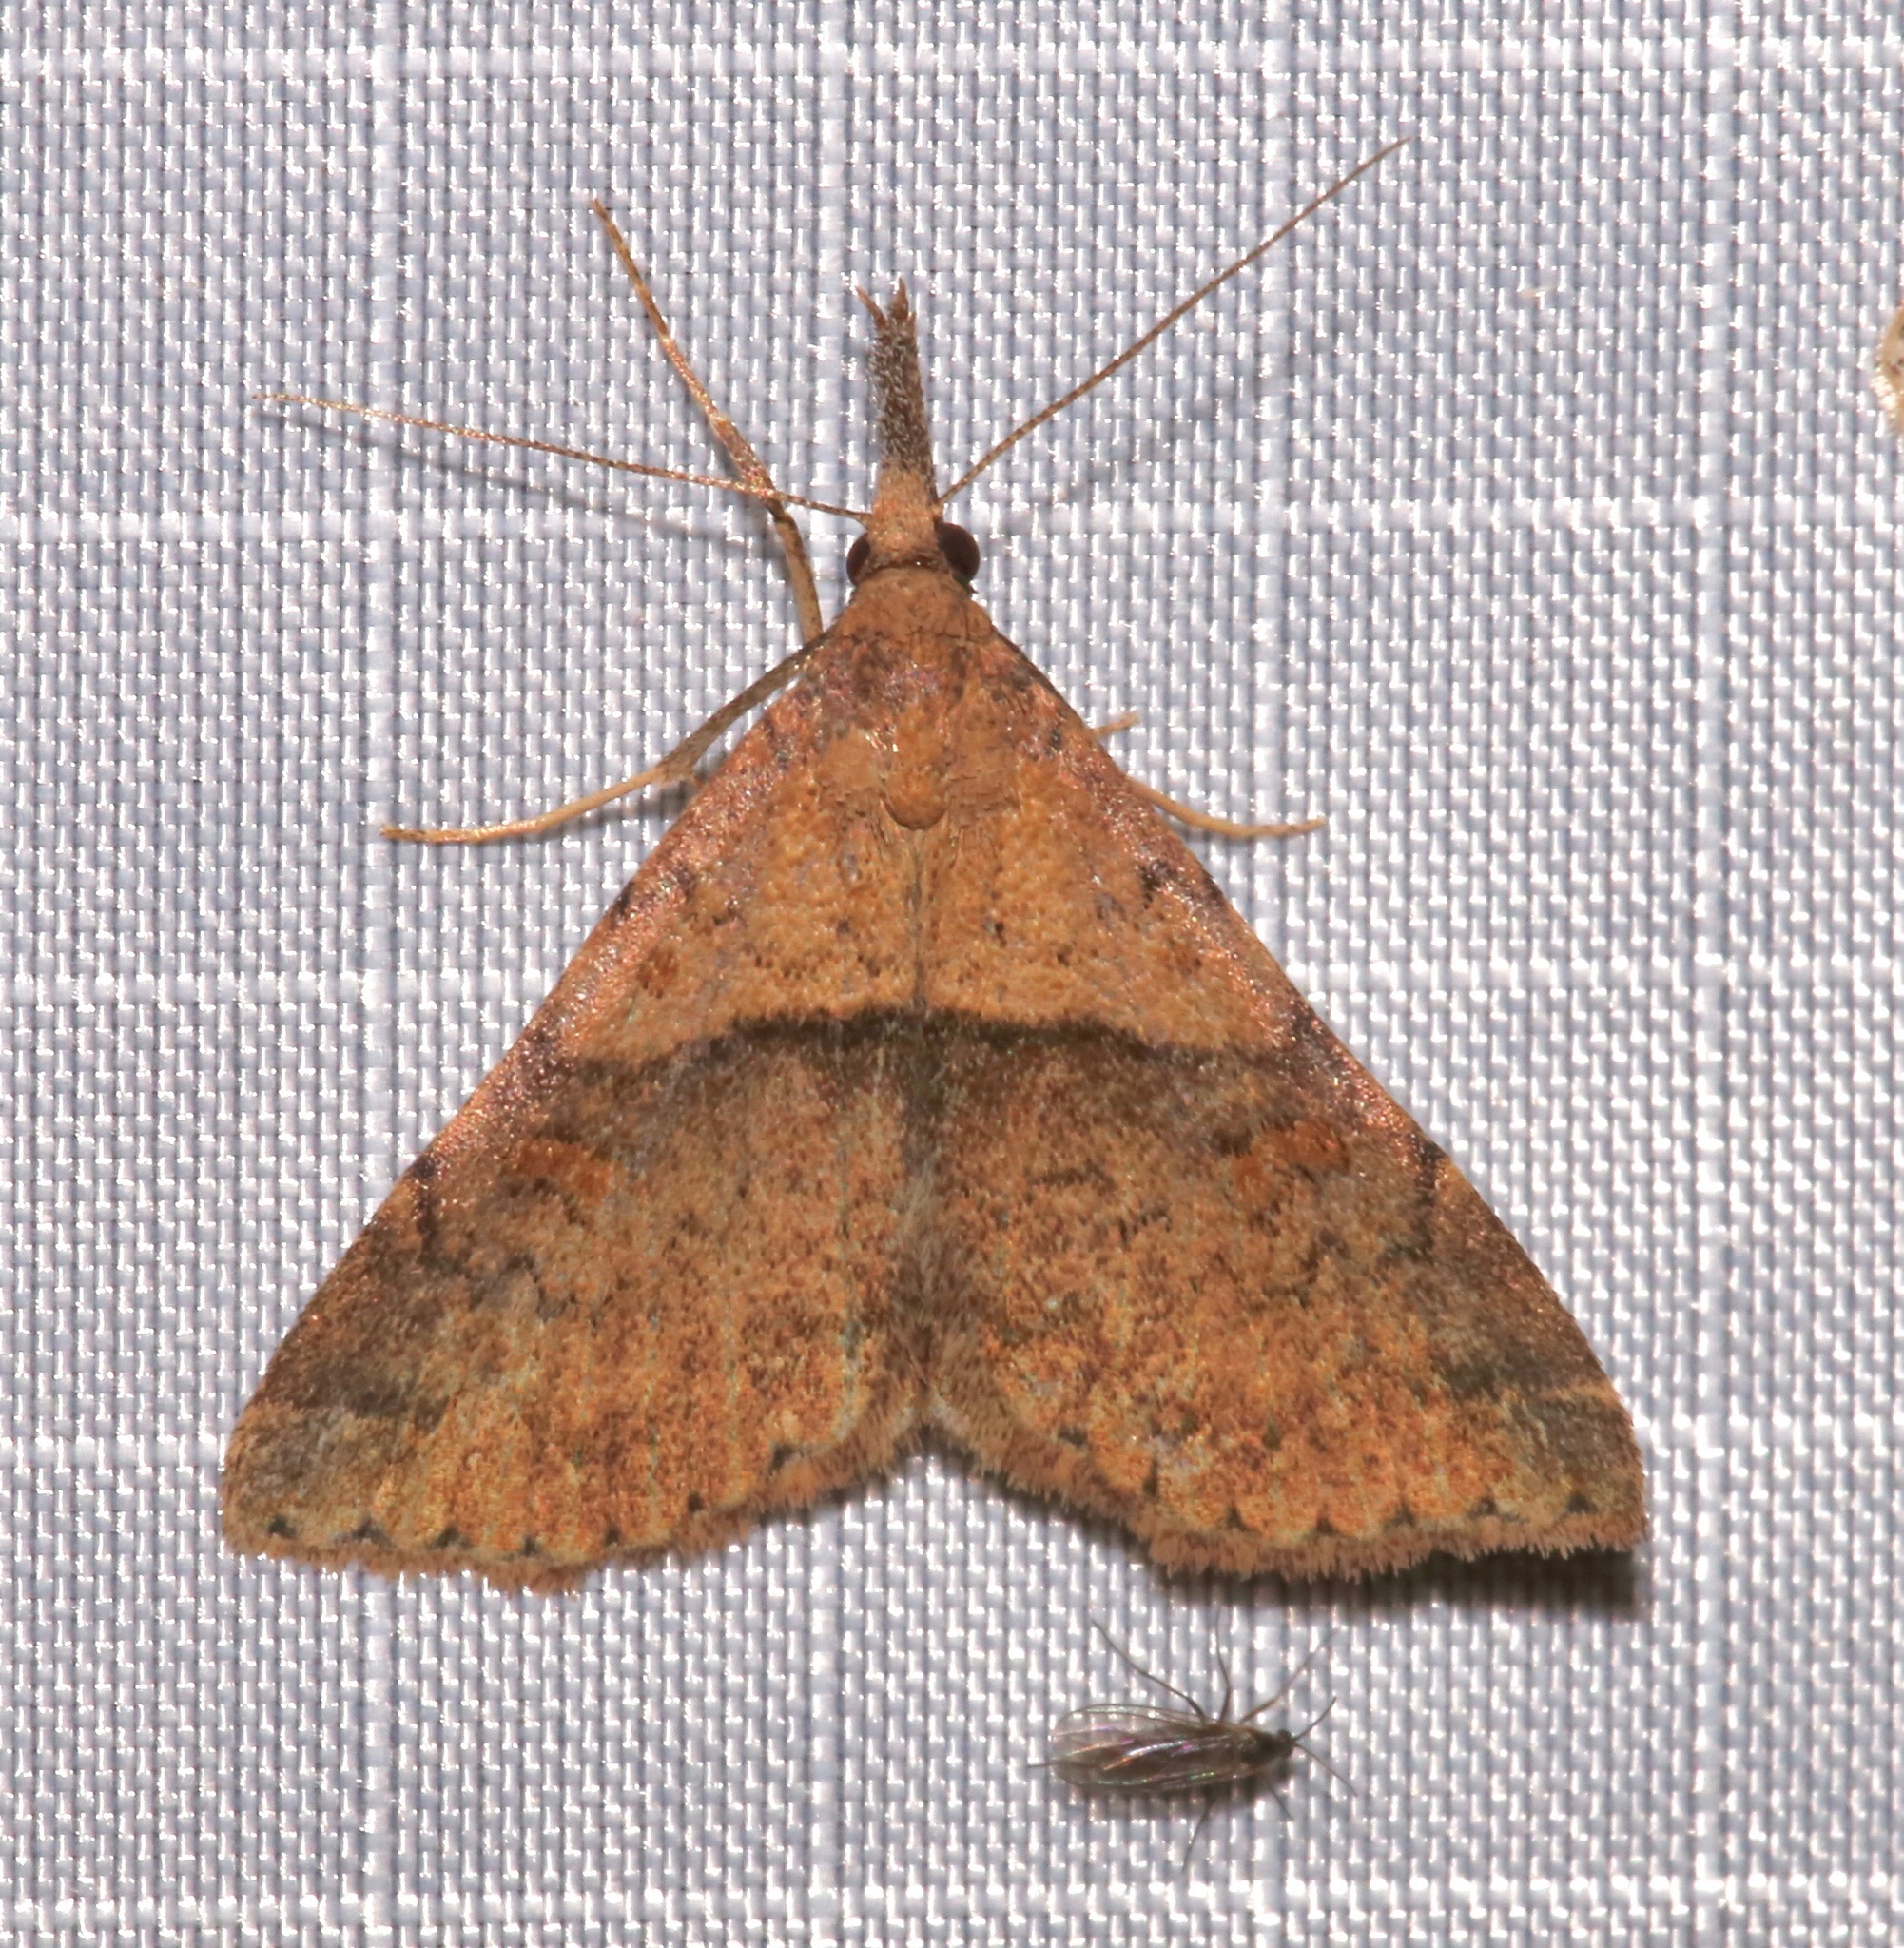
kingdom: Animalia
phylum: Arthropoda
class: Insecta
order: Lepidoptera
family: Erebidae
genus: Renia
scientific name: Renia rigida
